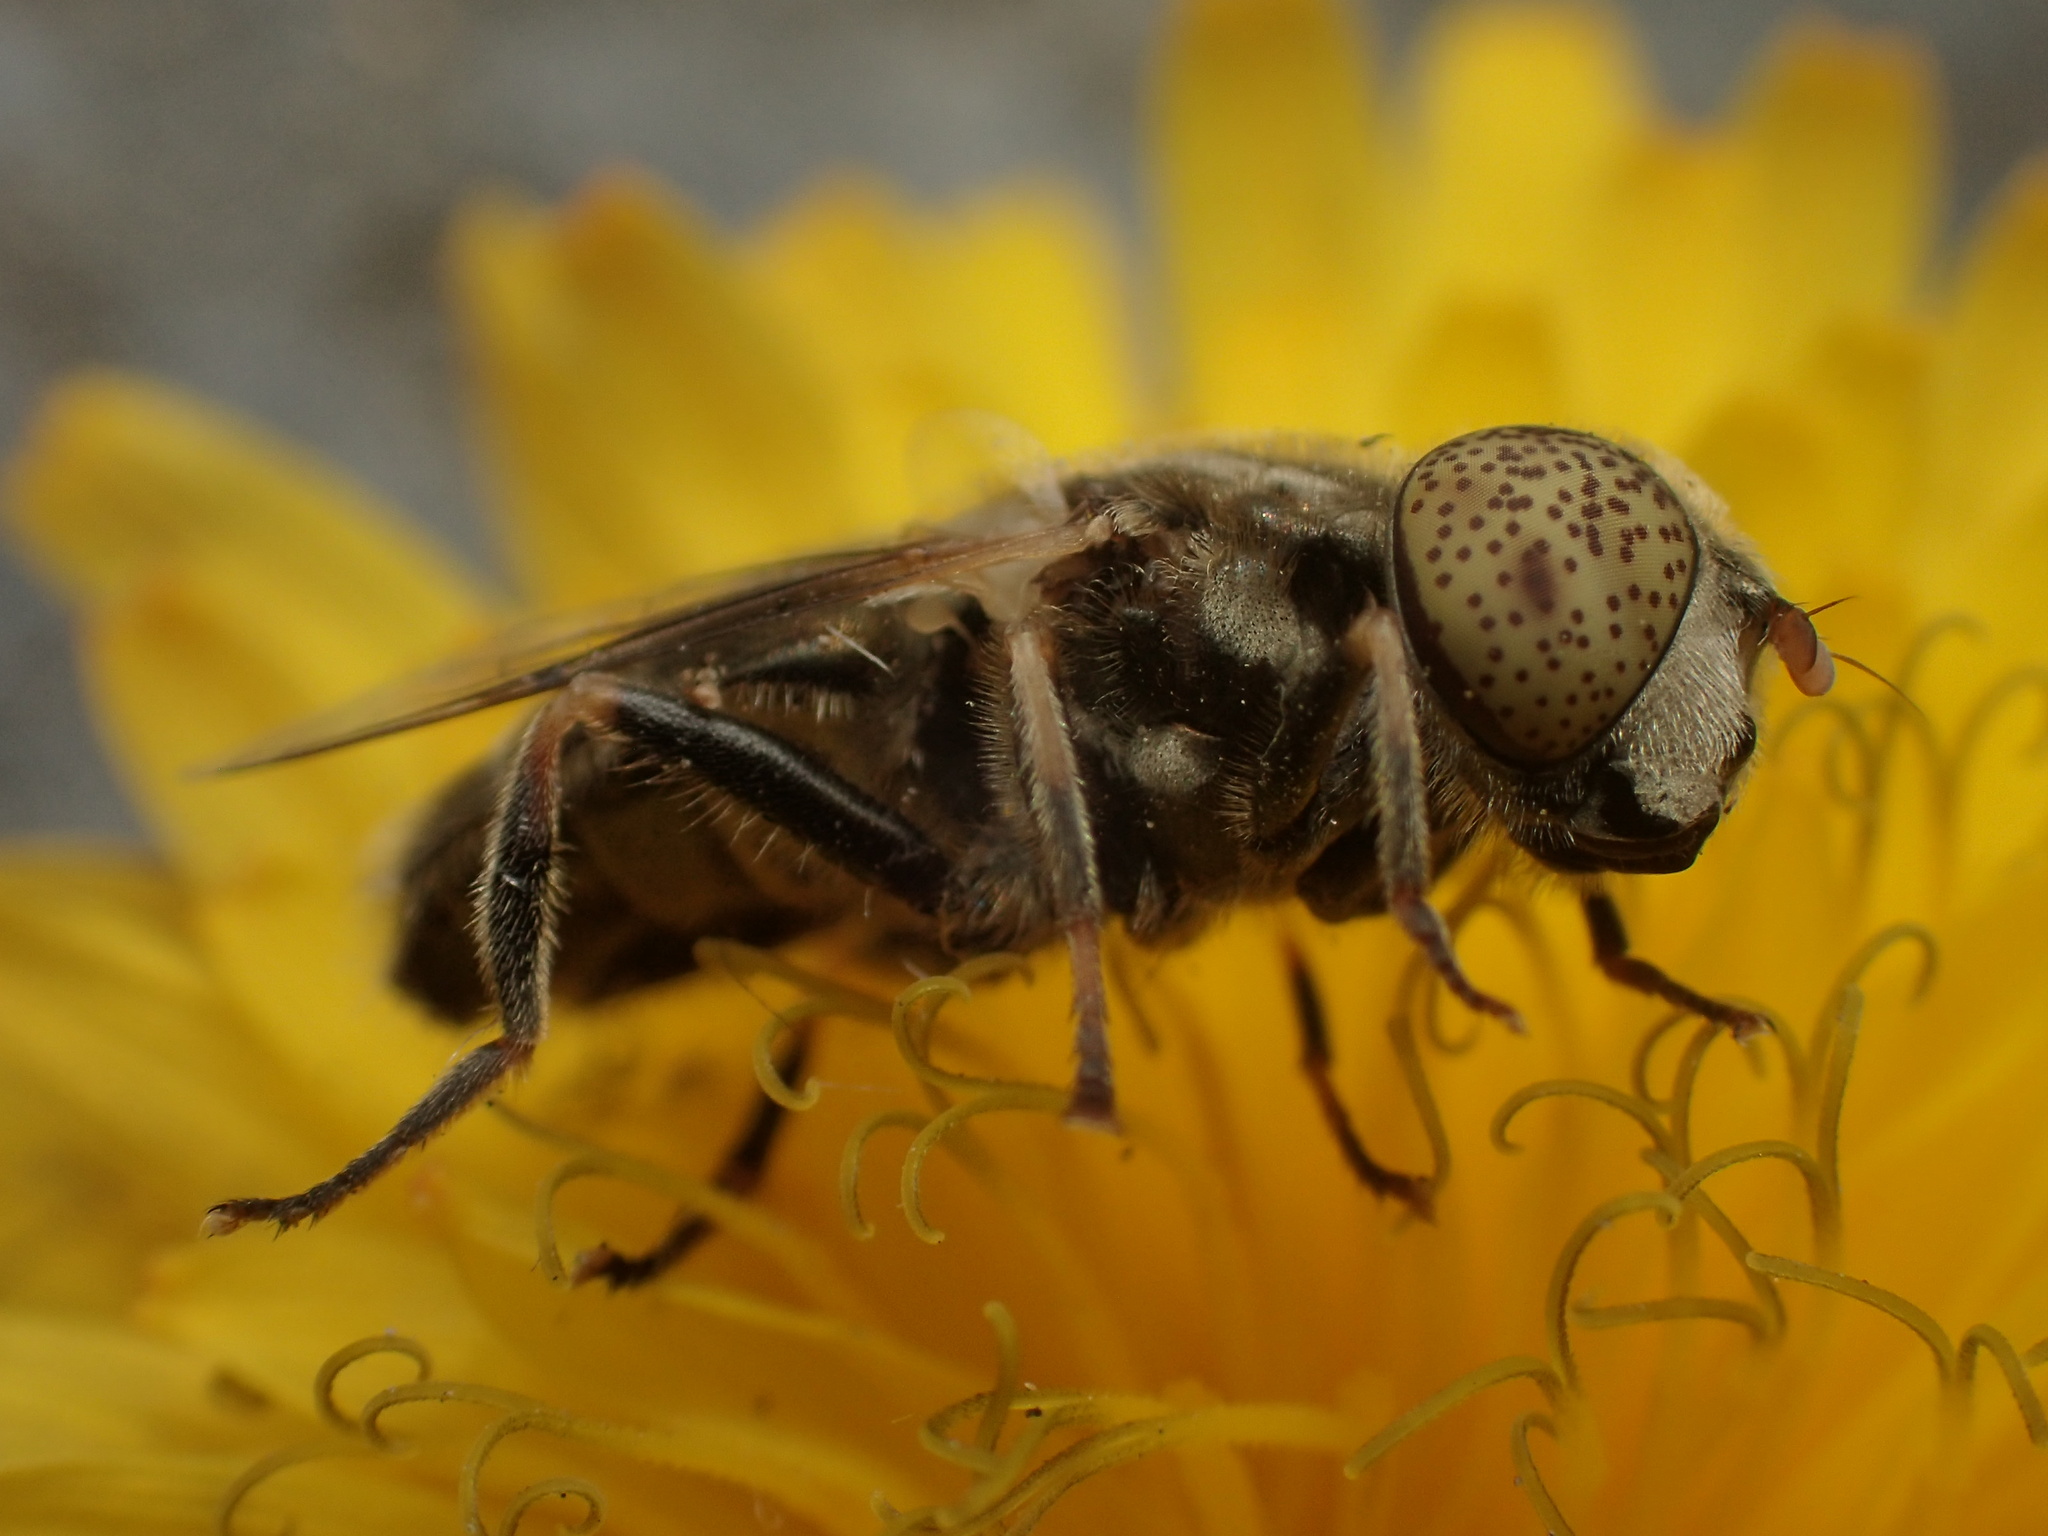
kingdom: Animalia
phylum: Arthropoda
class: Insecta
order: Diptera
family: Syrphidae
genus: Eristalinus
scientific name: Eristalinus aeneus
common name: Syrphid fly
